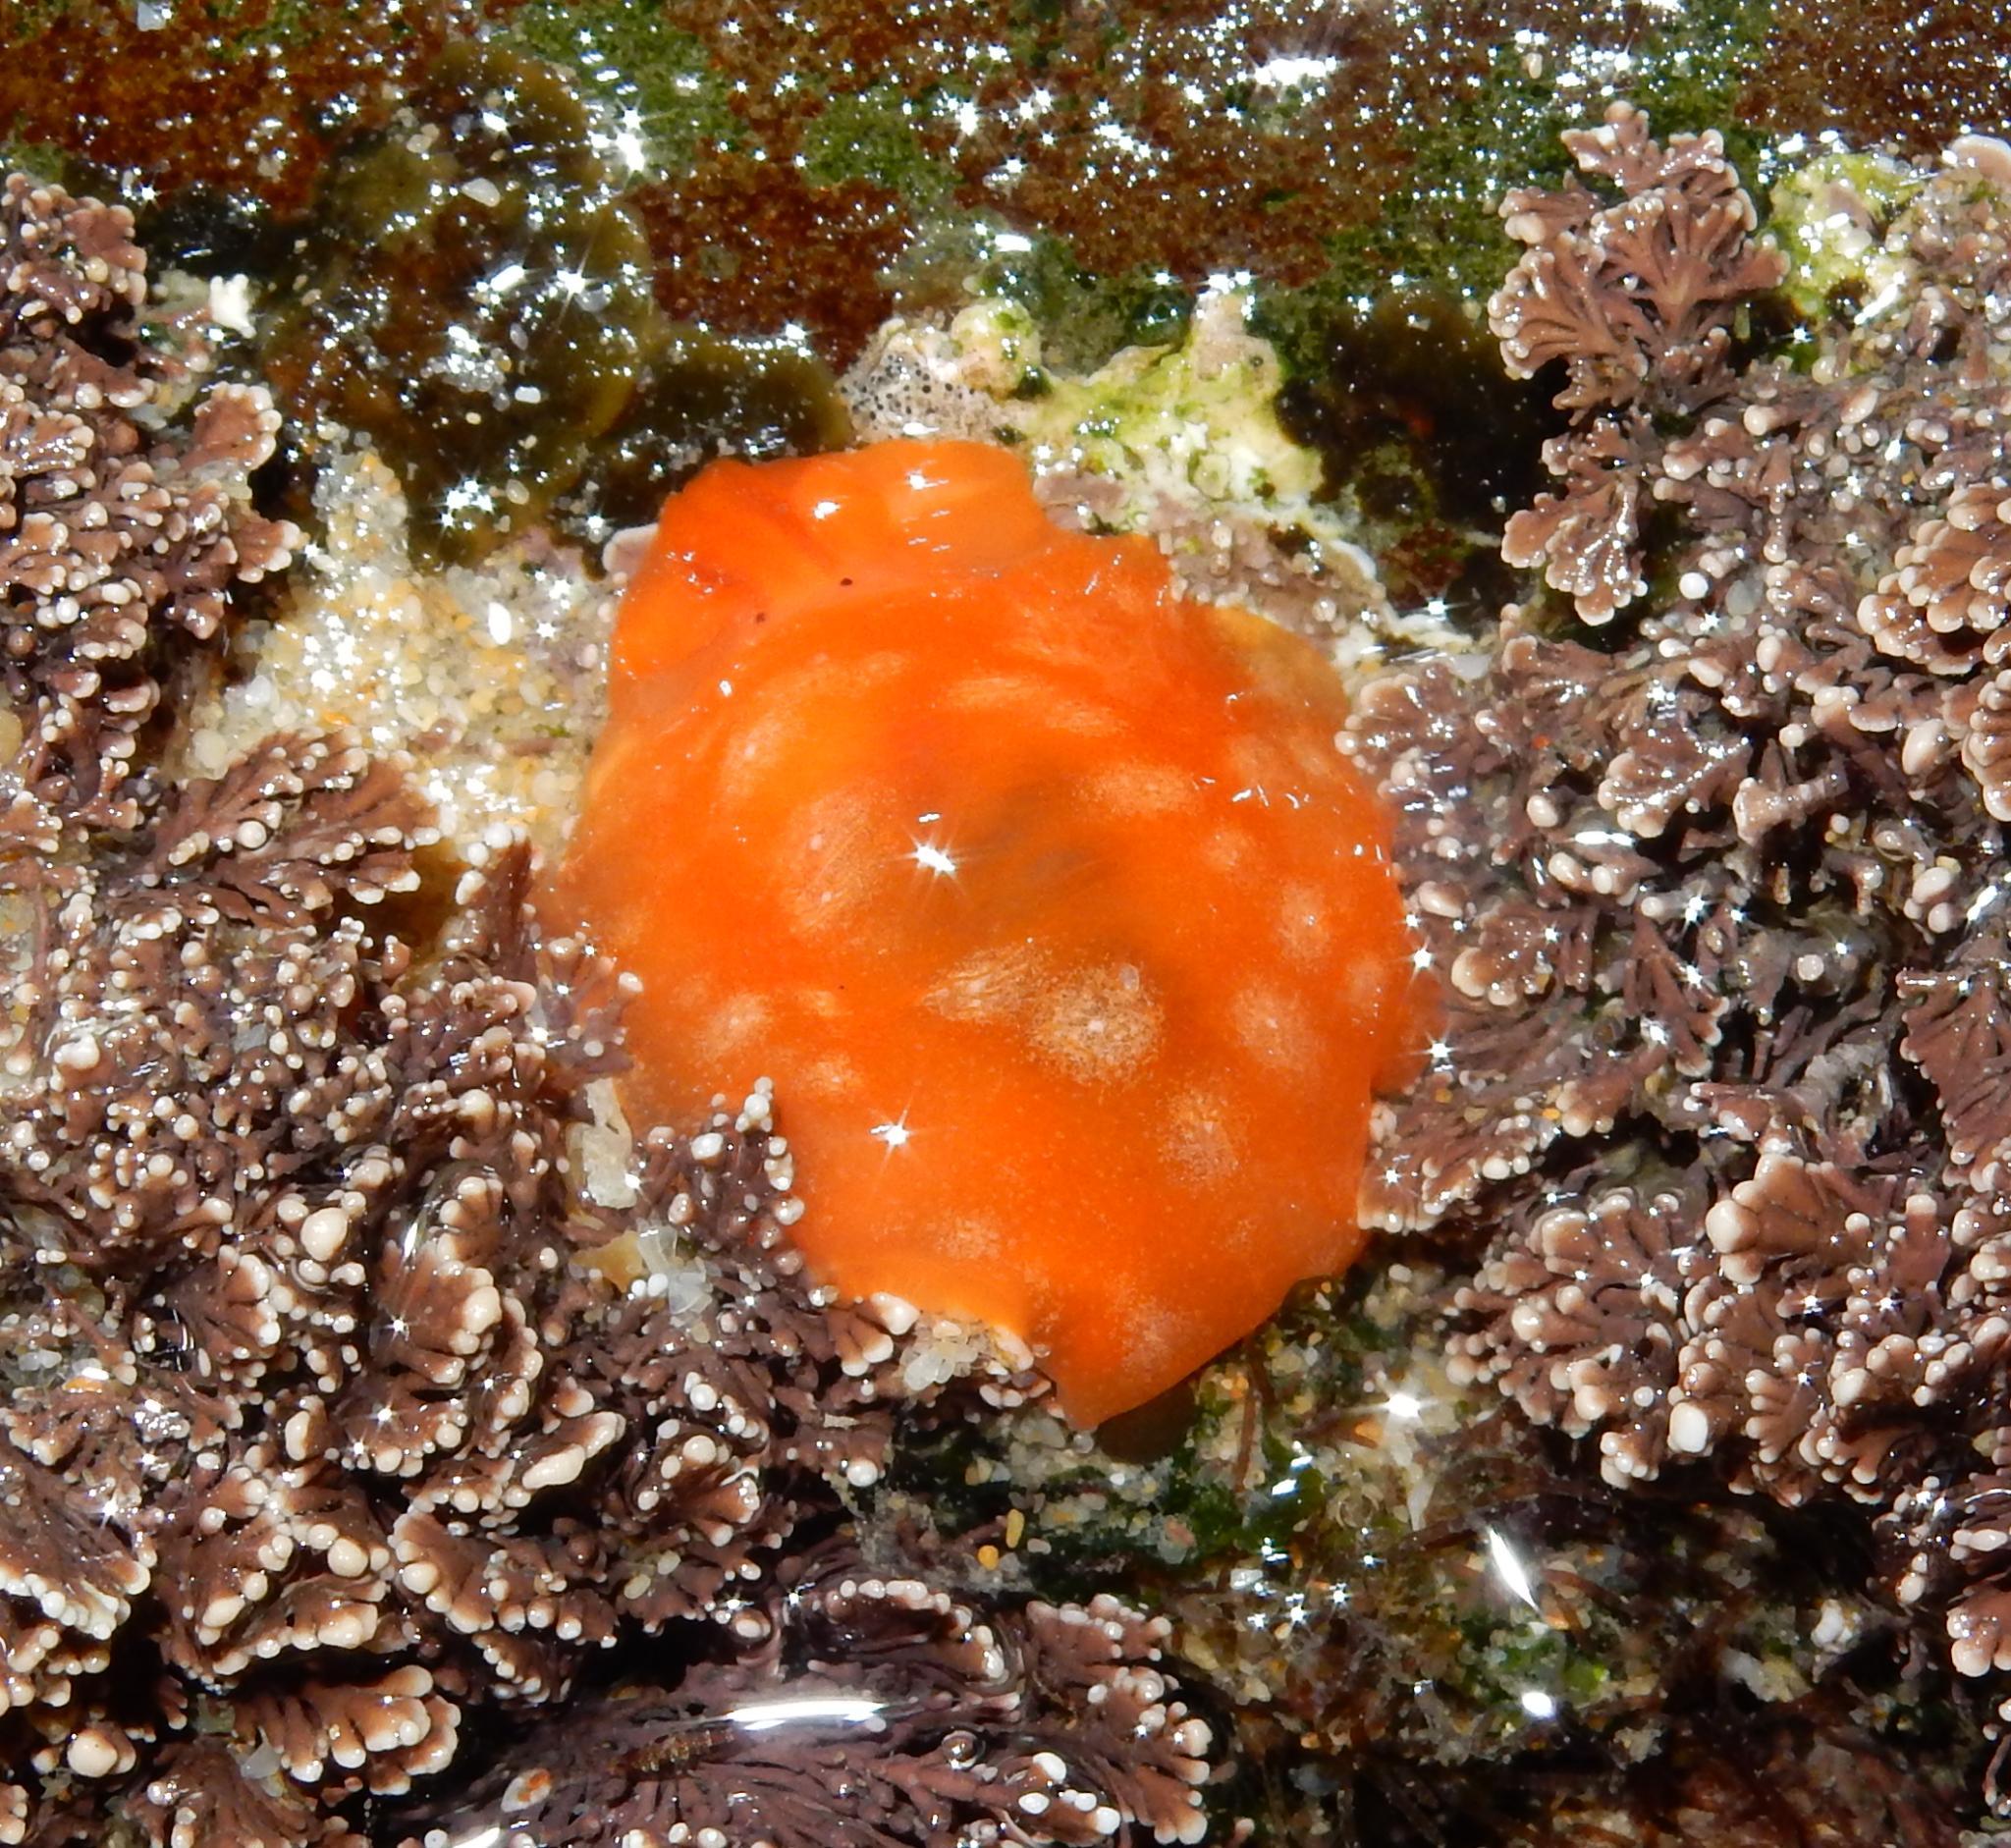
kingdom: Animalia
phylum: Mollusca
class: Gastropoda
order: Pleurobranchida
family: Pleurobranchidae
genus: Berthellina
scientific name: Berthellina granulata
